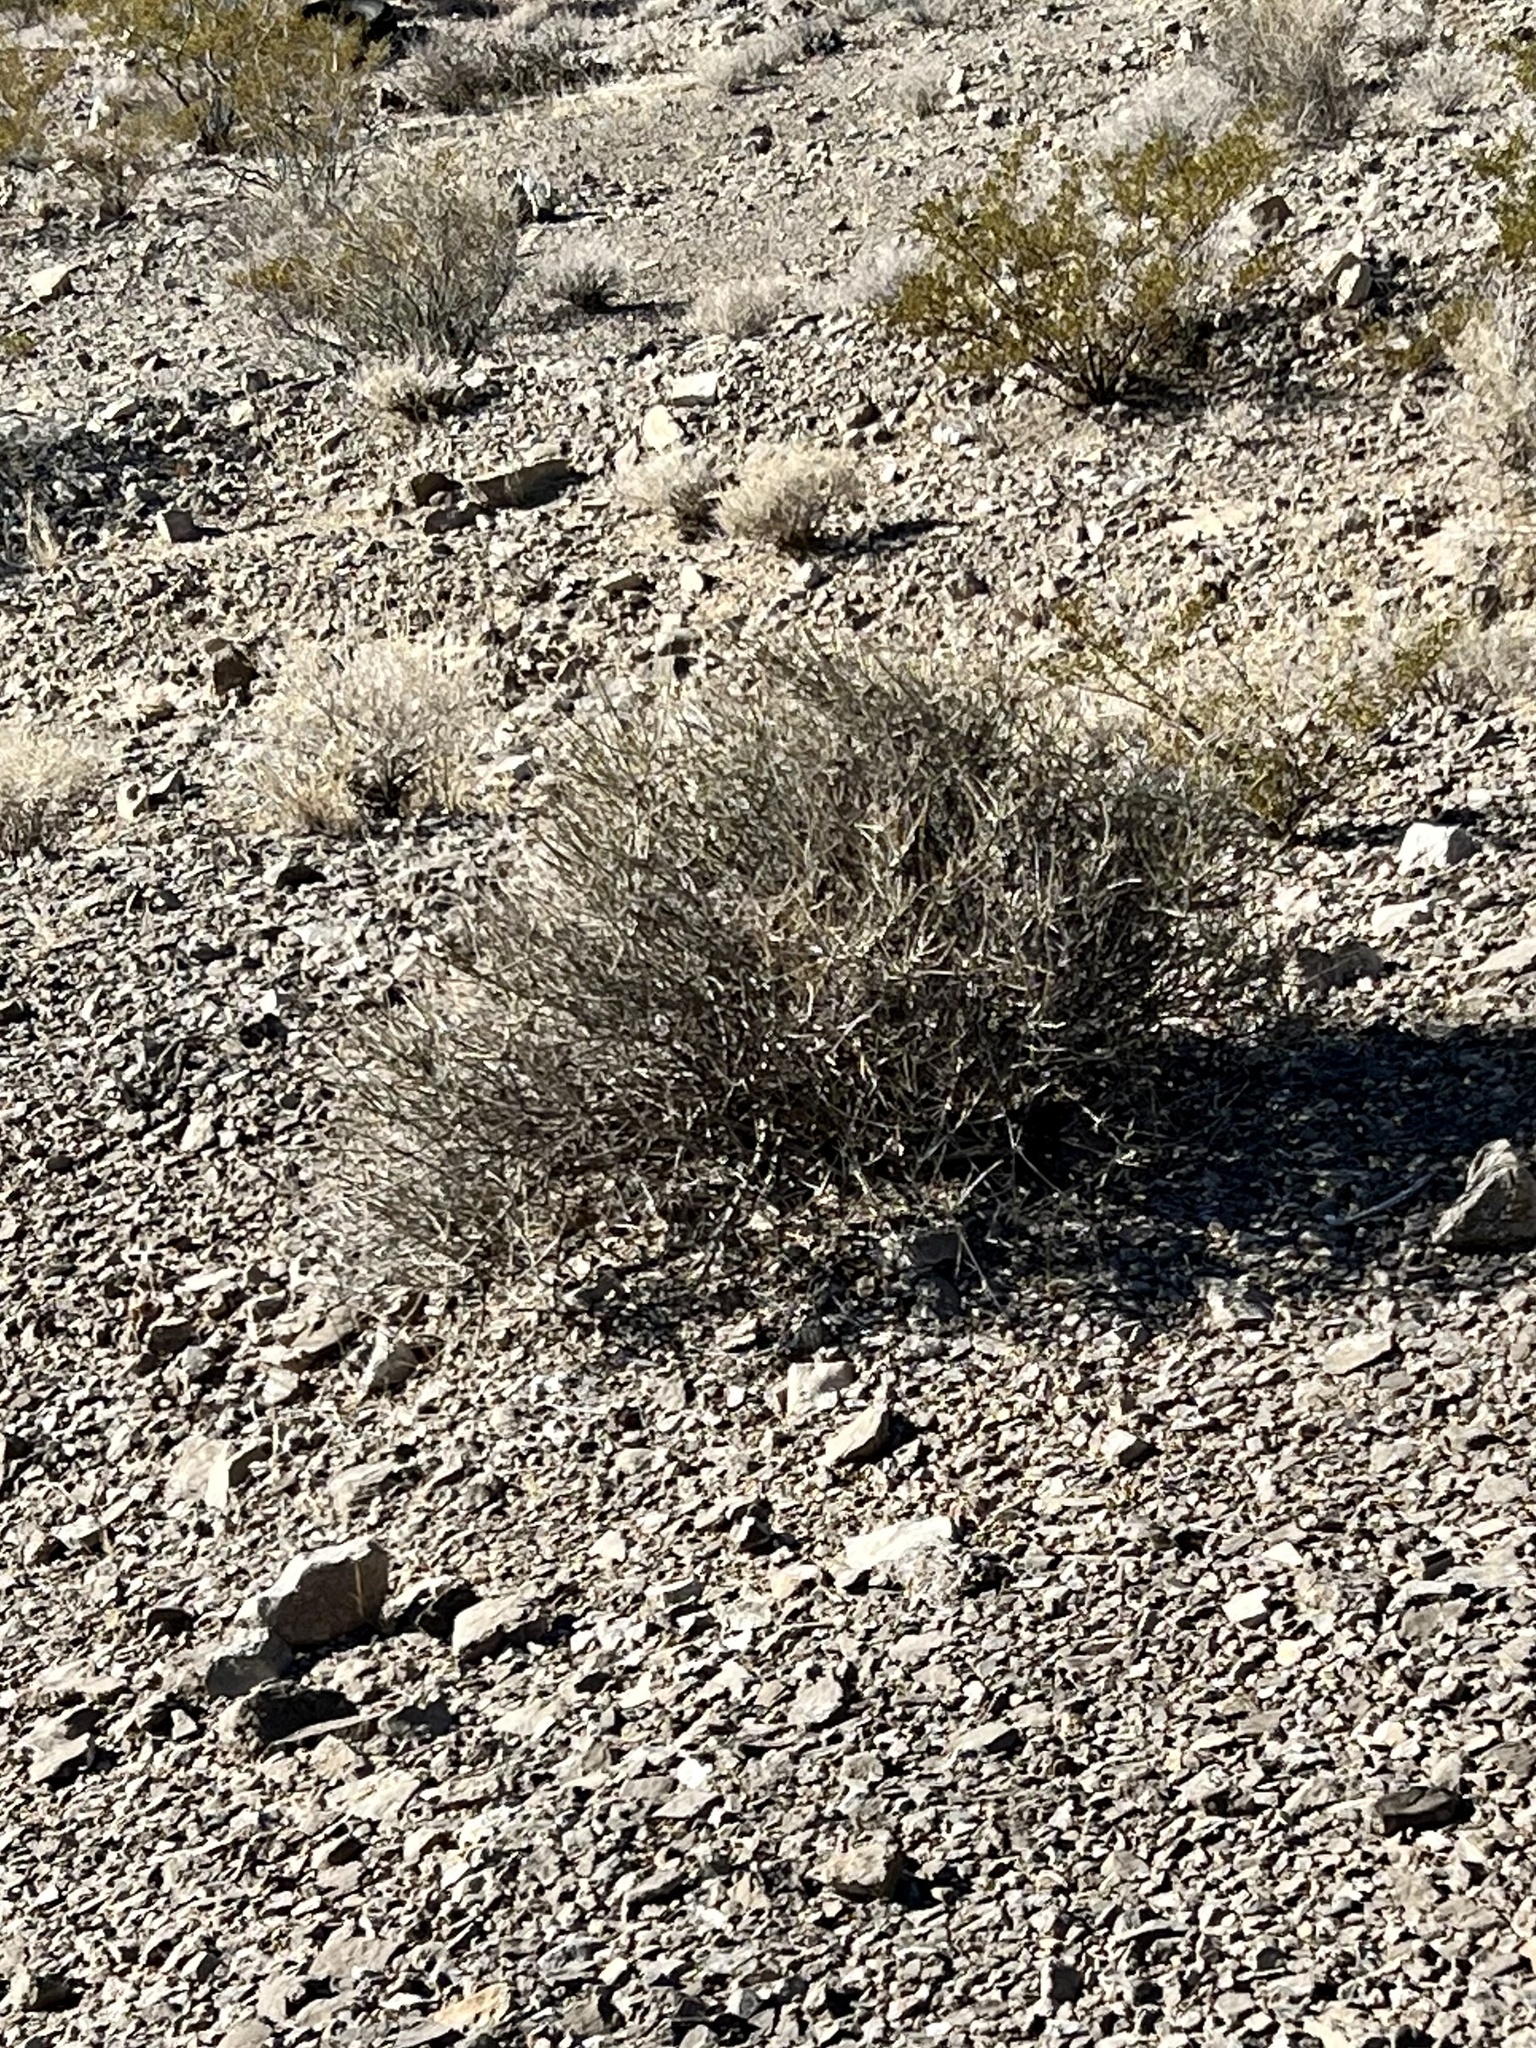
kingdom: Plantae
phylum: Tracheophyta
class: Gnetopsida
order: Ephedrales
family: Ephedraceae
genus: Ephedra
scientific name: Ephedra nevadensis
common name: Gray ephedra
